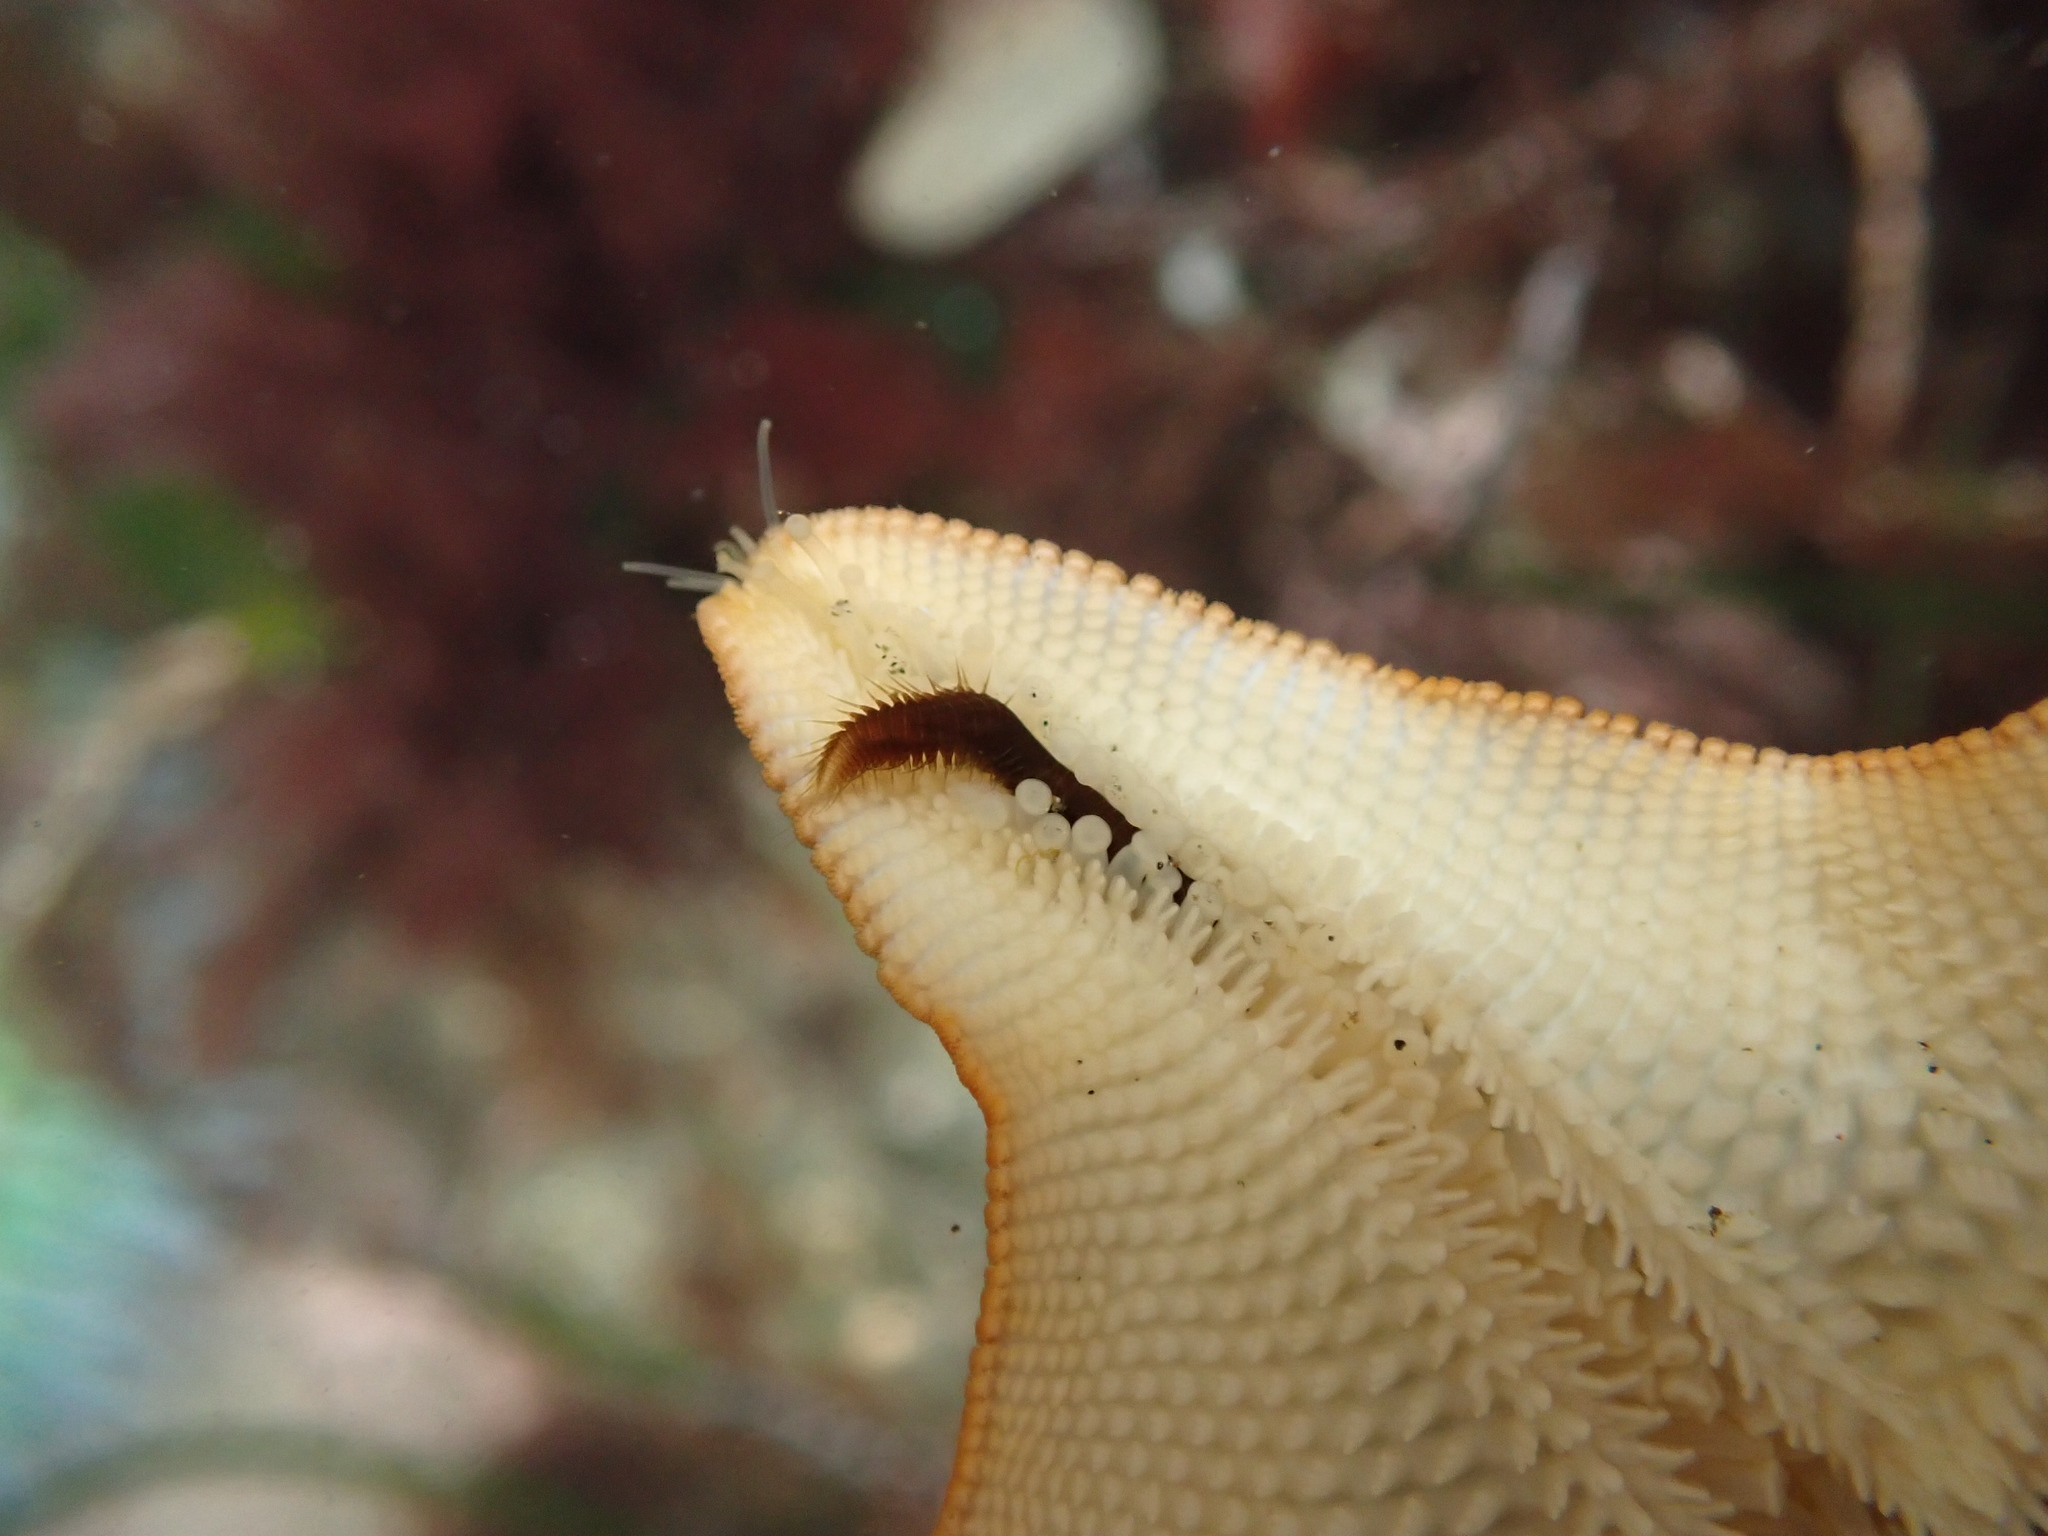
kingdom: Animalia
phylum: Annelida
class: Polychaeta
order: Phyllodocida
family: Hesionidae
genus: Oxydromus
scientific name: Oxydromus pugettensis
